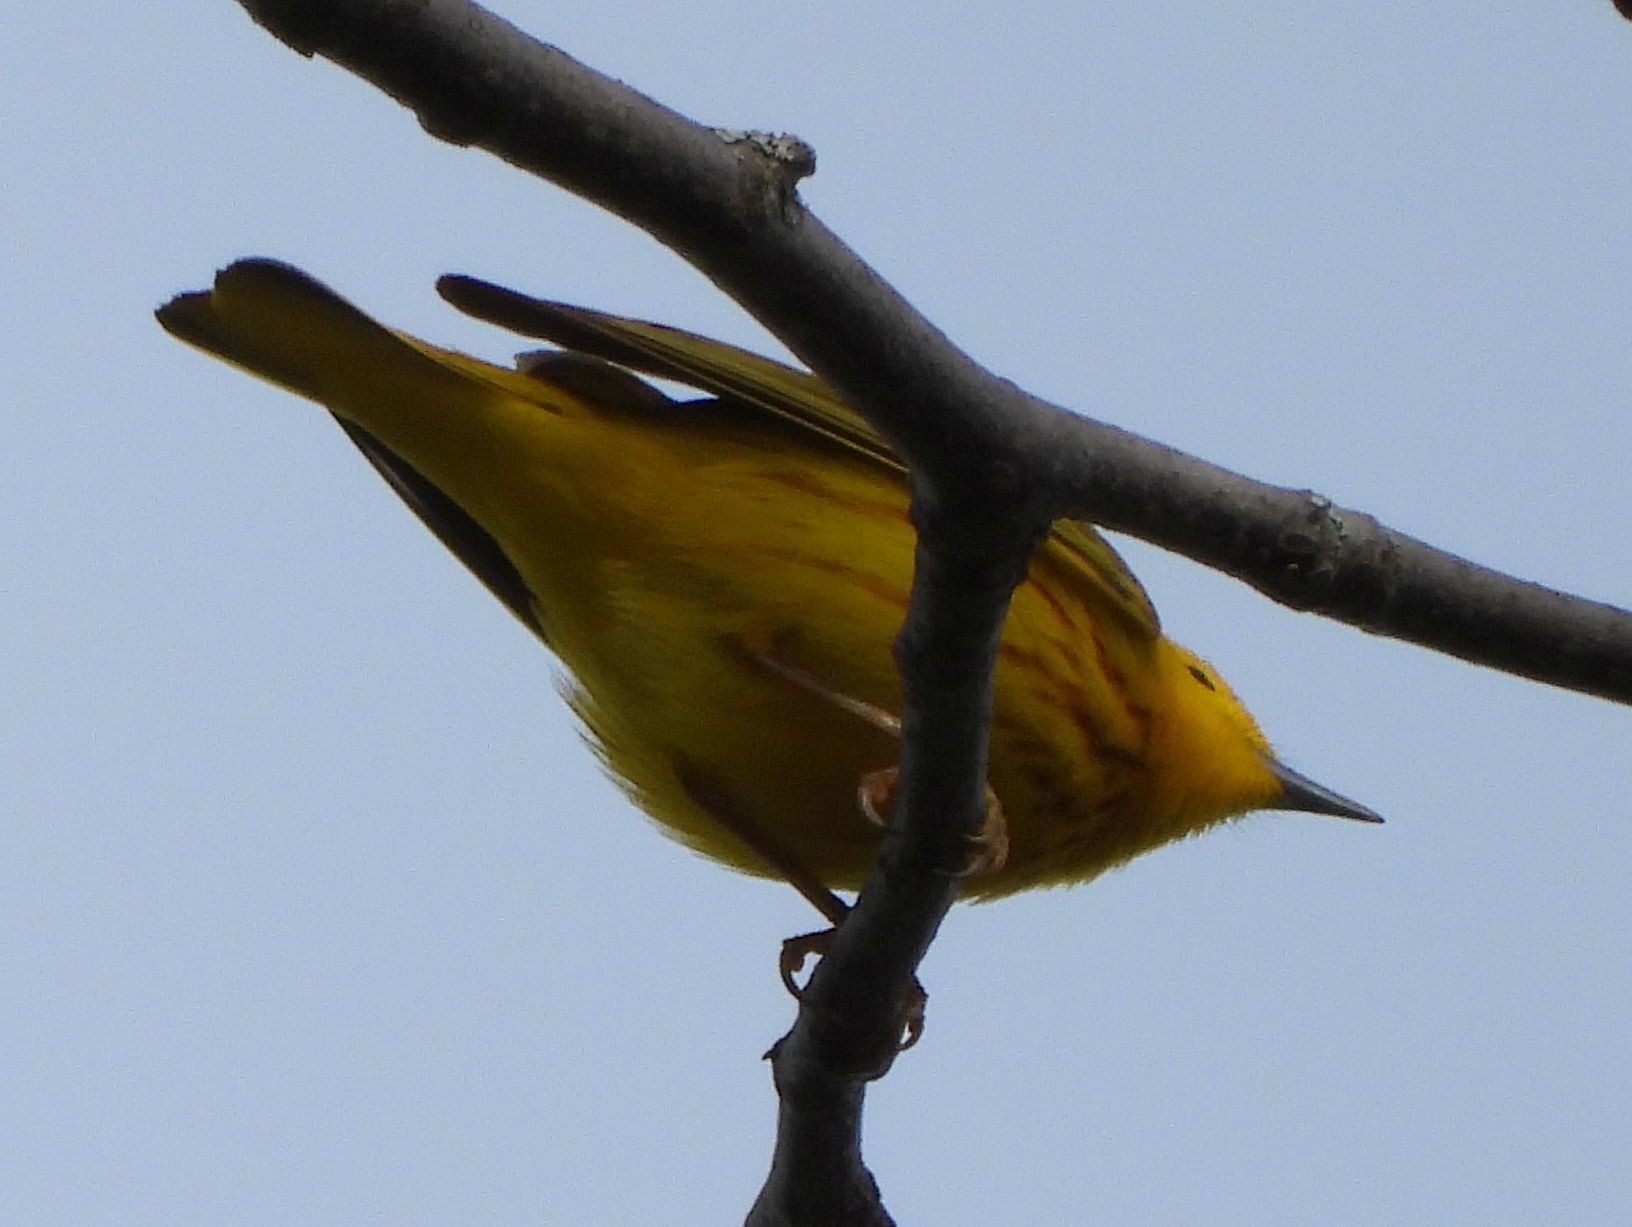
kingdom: Animalia
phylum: Chordata
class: Aves
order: Passeriformes
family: Parulidae
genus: Setophaga
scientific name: Setophaga petechia
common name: Yellow warbler
